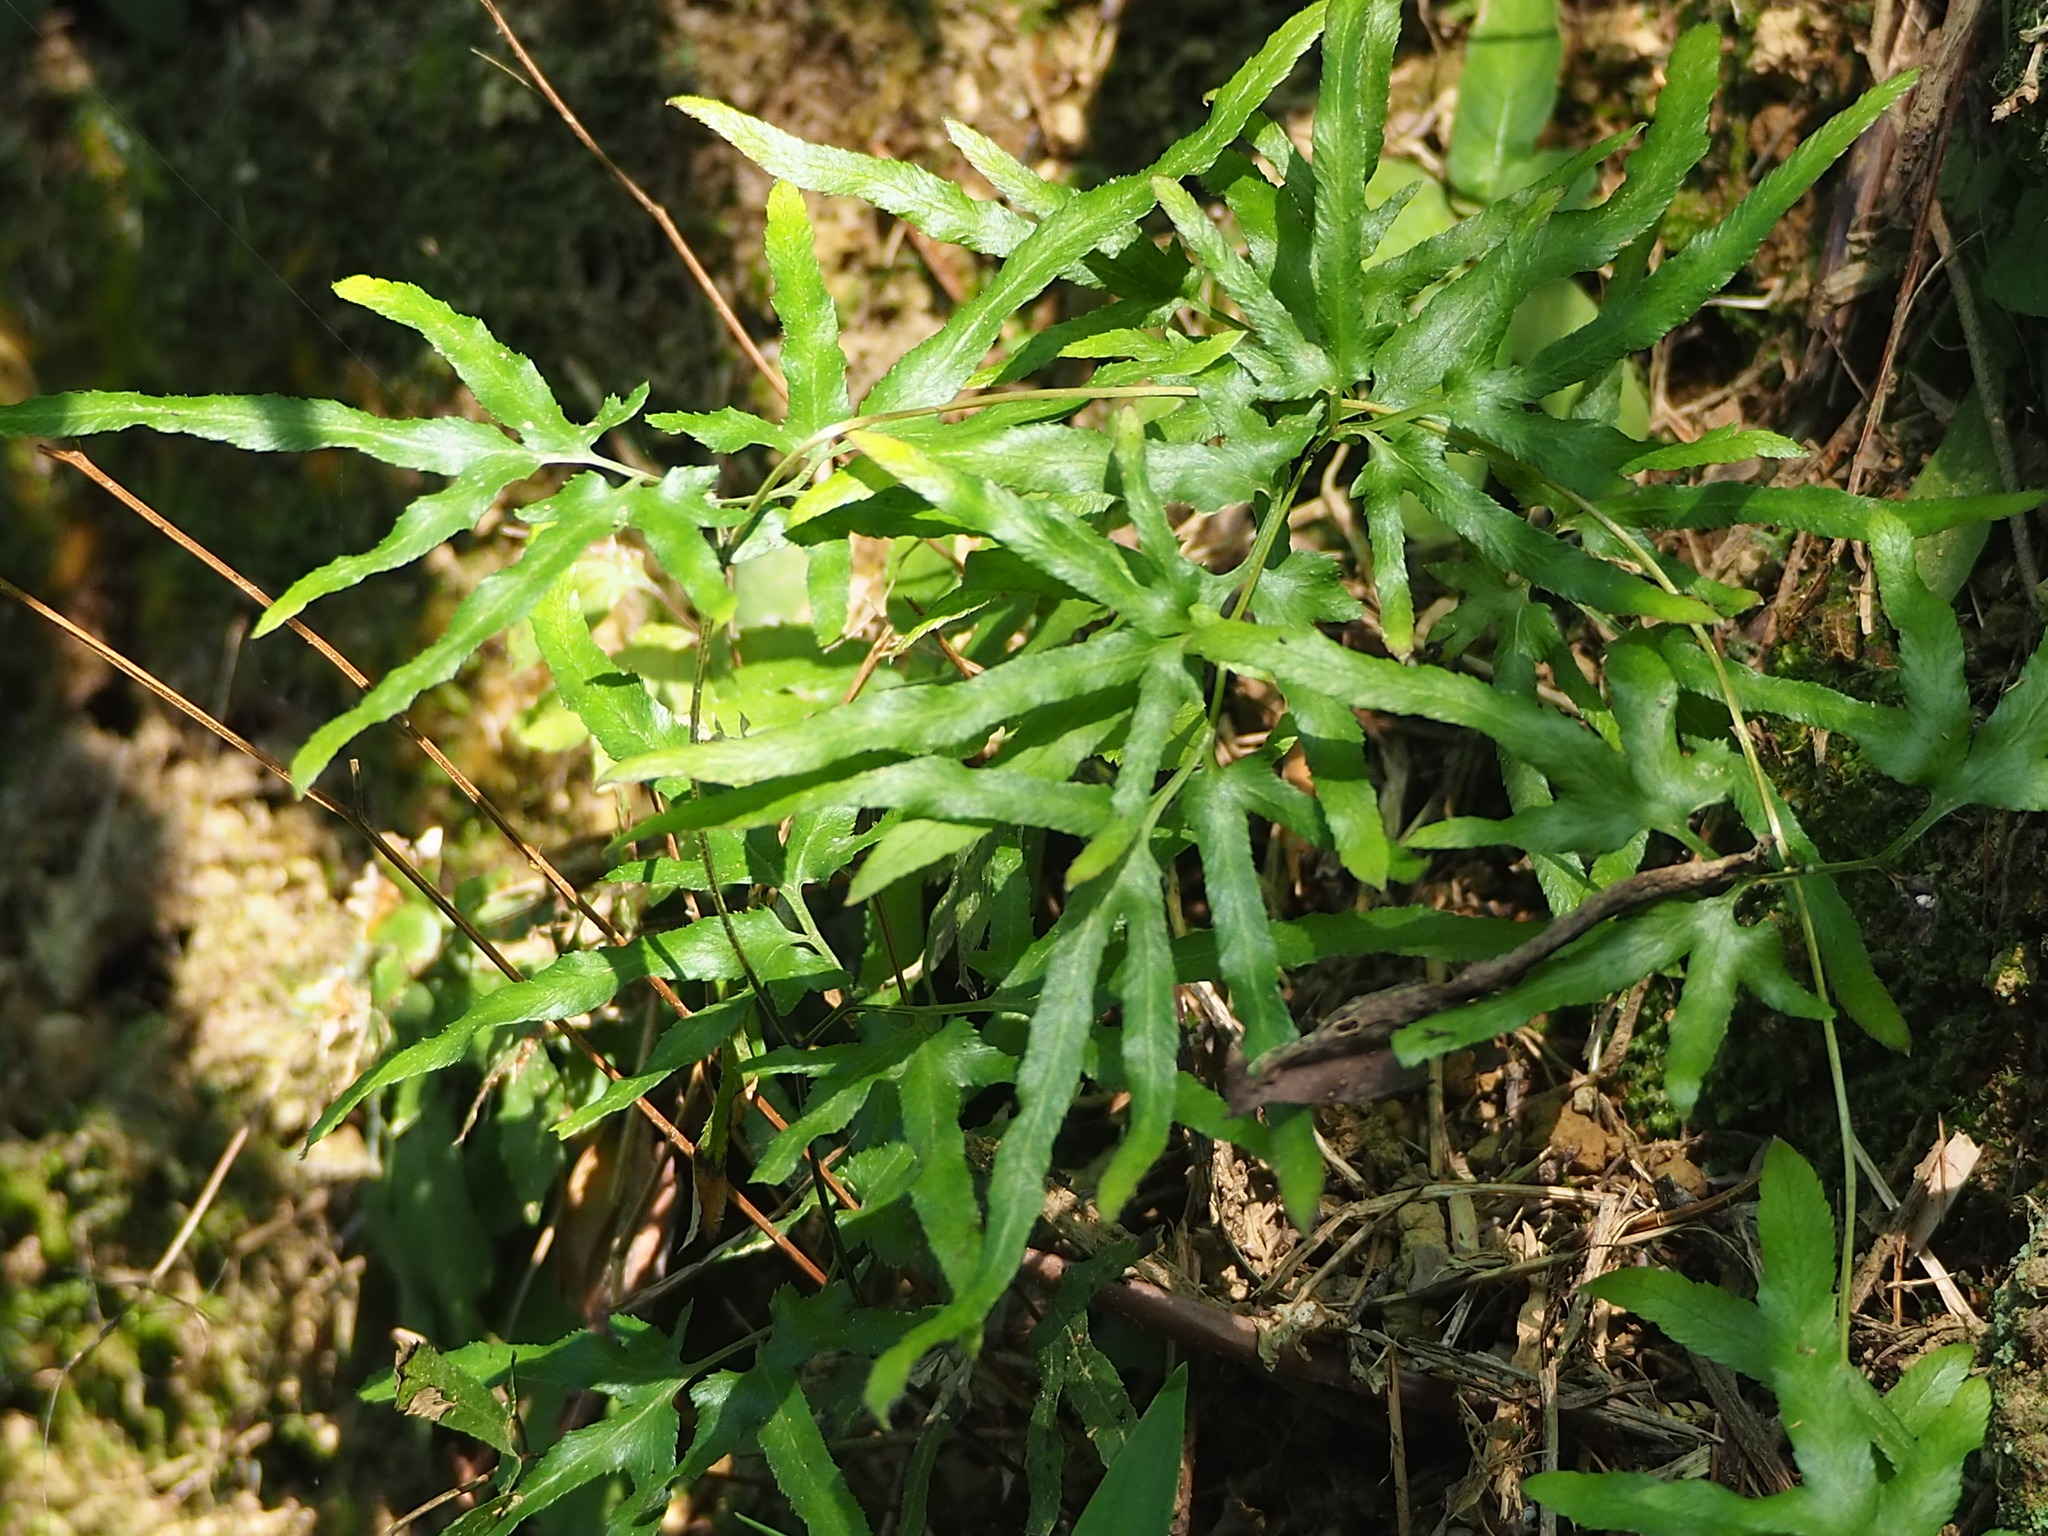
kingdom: Plantae
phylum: Tracheophyta
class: Polypodiopsida
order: Schizaeales
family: Lygodiaceae
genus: Lygodium
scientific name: Lygodium japonicum
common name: Japanese climbing fern
